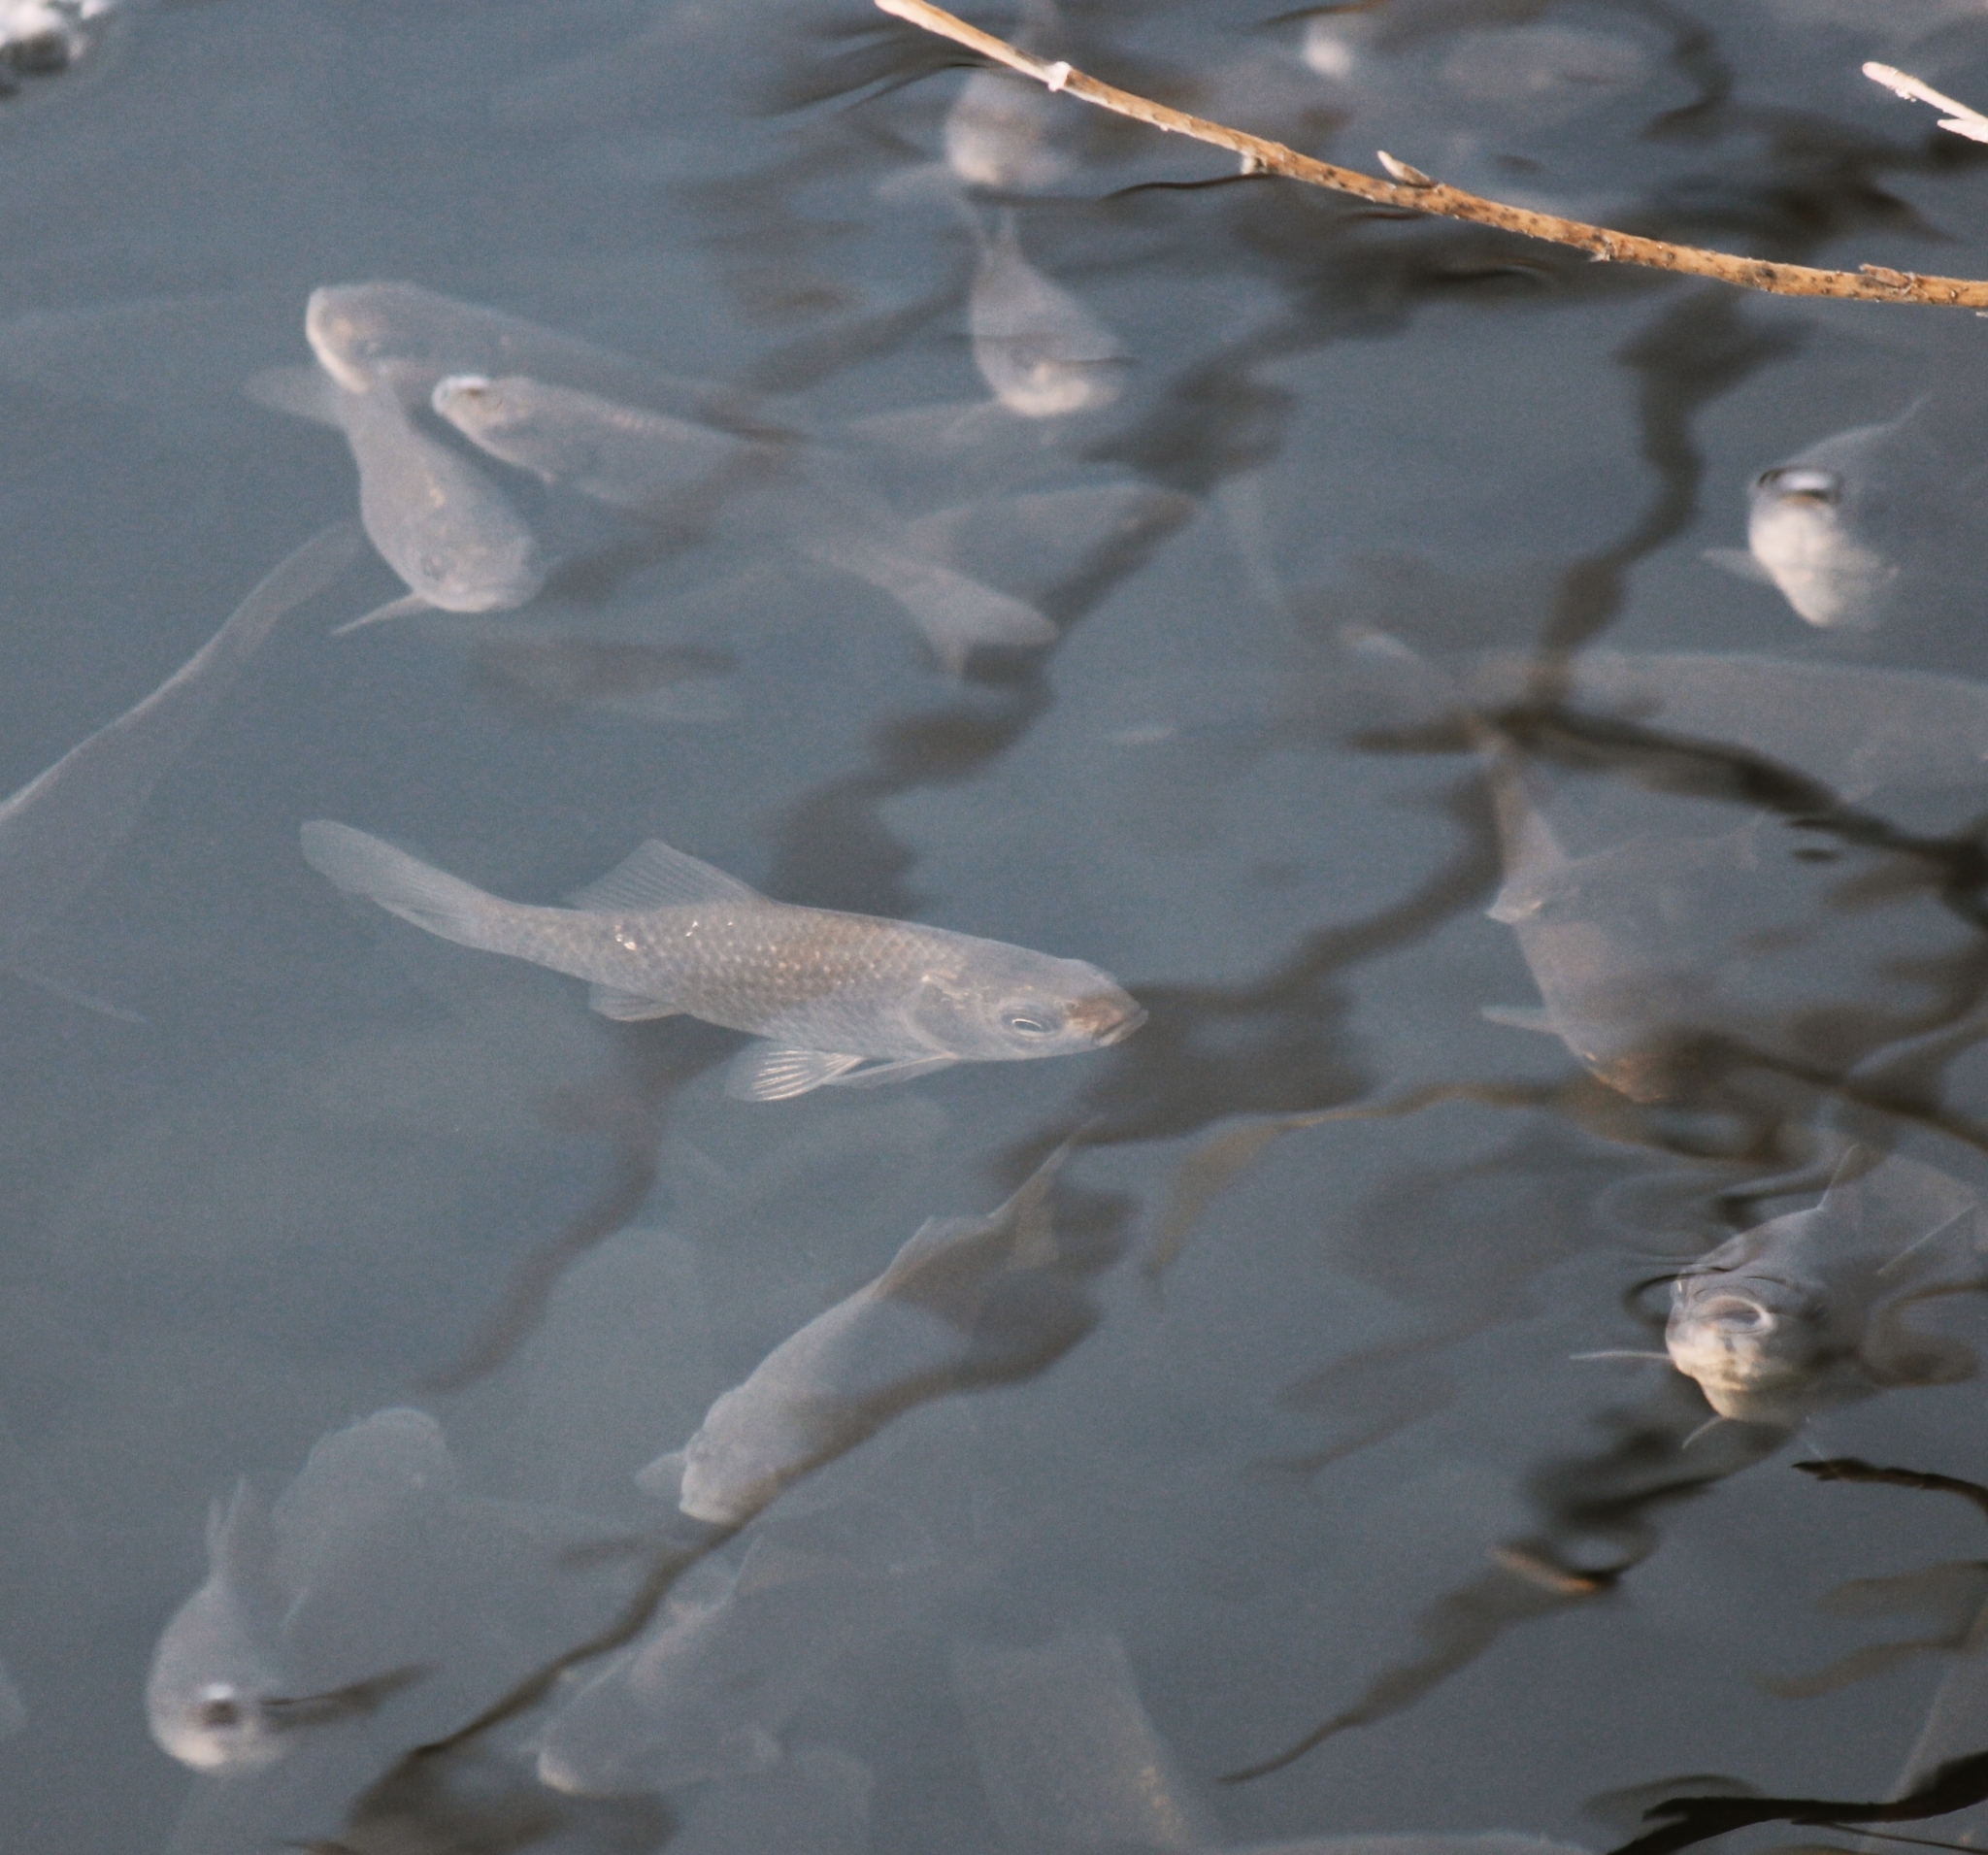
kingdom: Animalia
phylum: Chordata
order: Cypriniformes
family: Cyprinidae
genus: Cyprinus
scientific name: Cyprinus carpio
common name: Common carp
